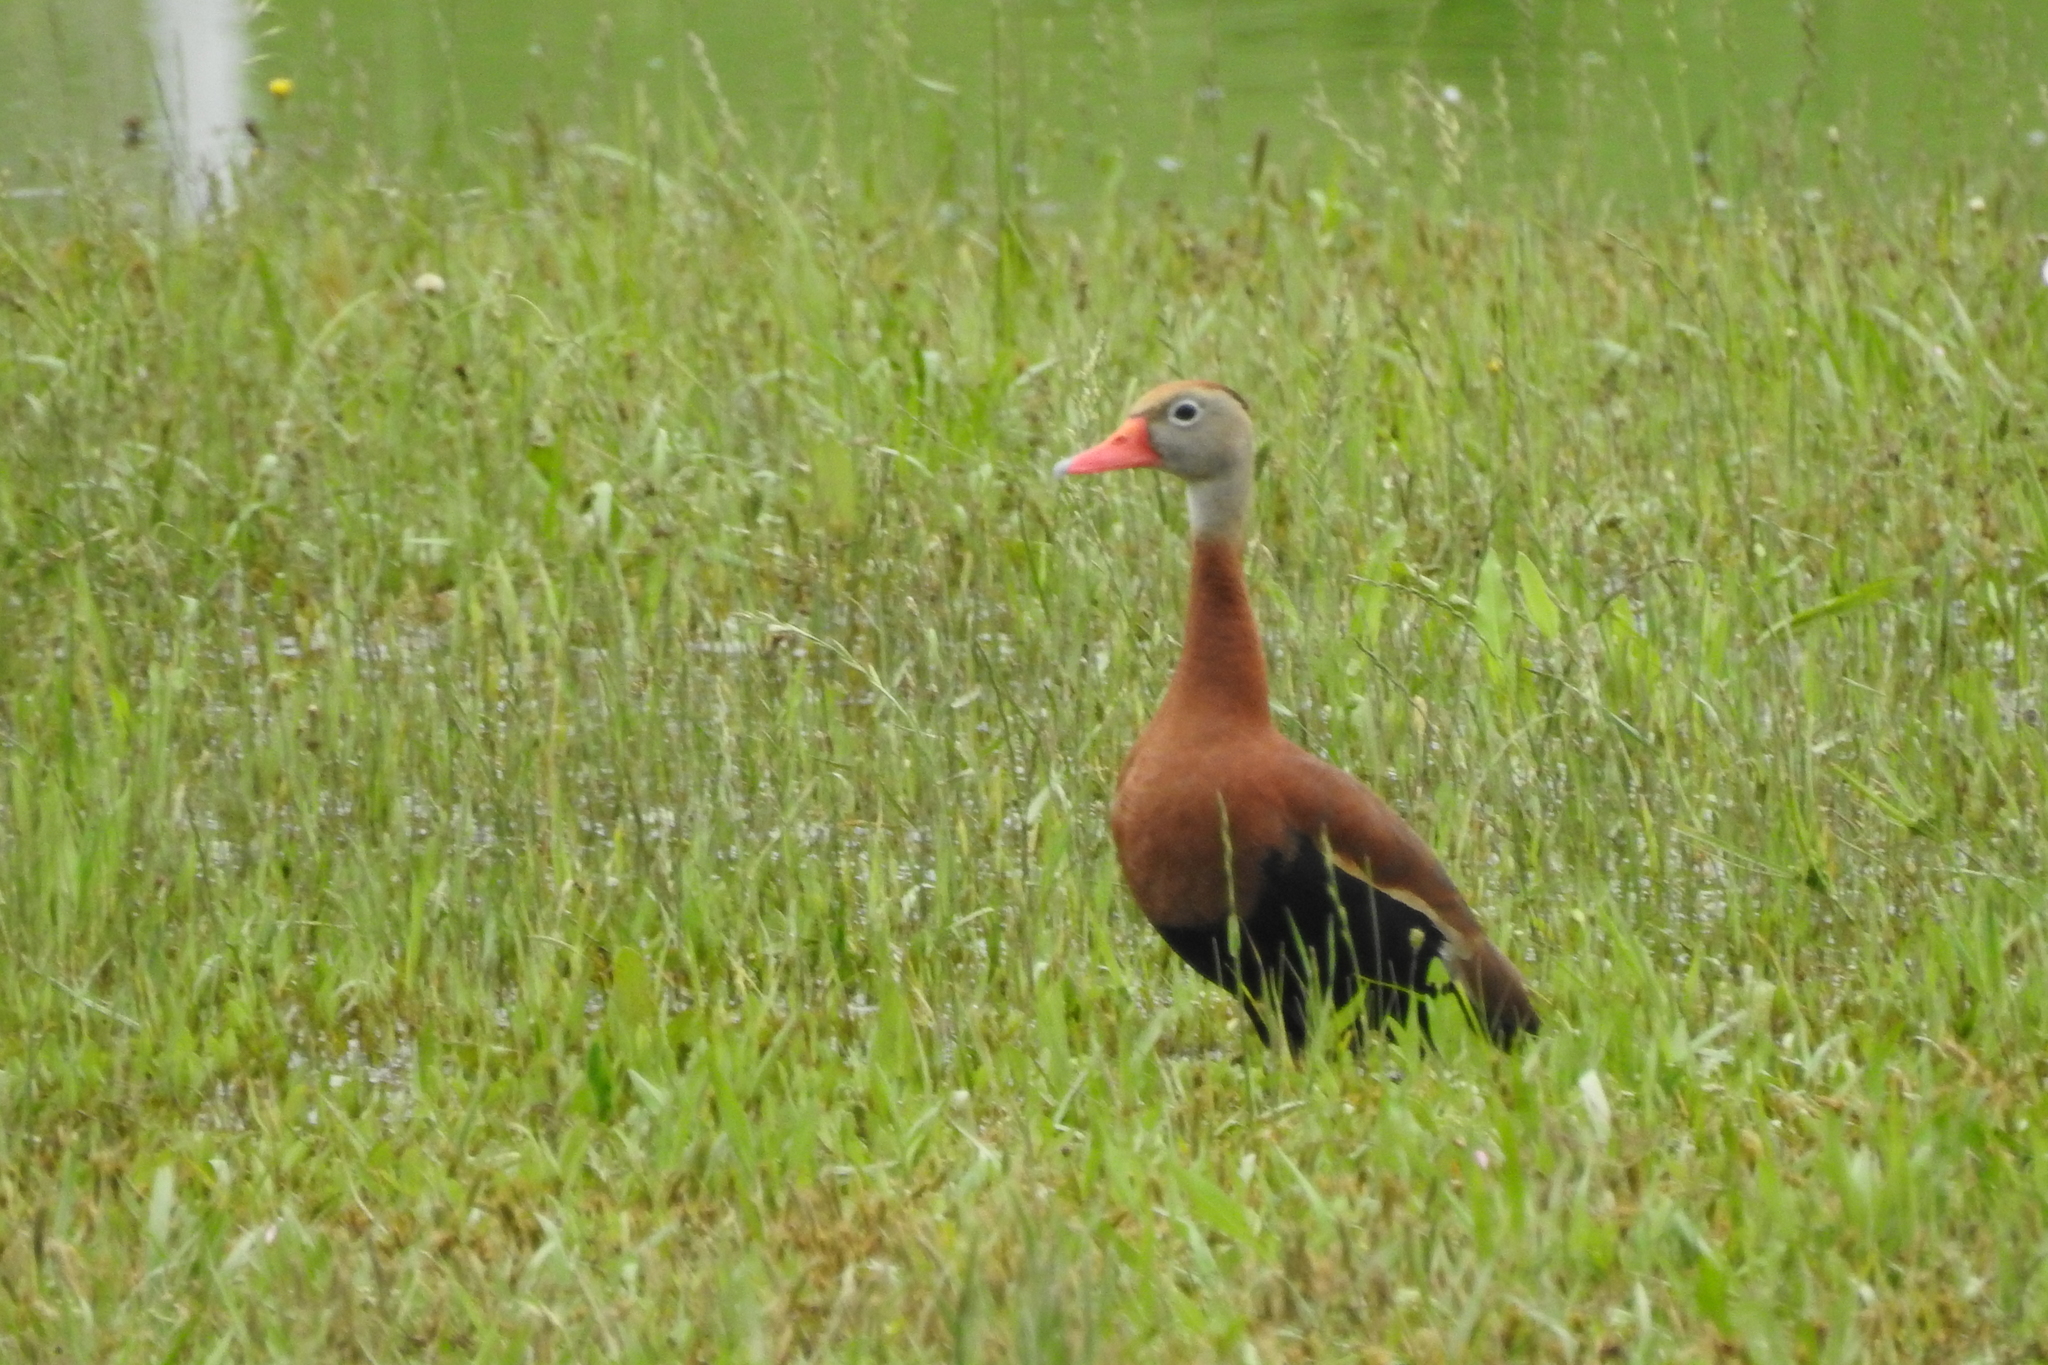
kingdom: Animalia
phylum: Chordata
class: Aves
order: Anseriformes
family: Anatidae
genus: Dendrocygna
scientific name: Dendrocygna autumnalis
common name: Black-bellied whistling duck
